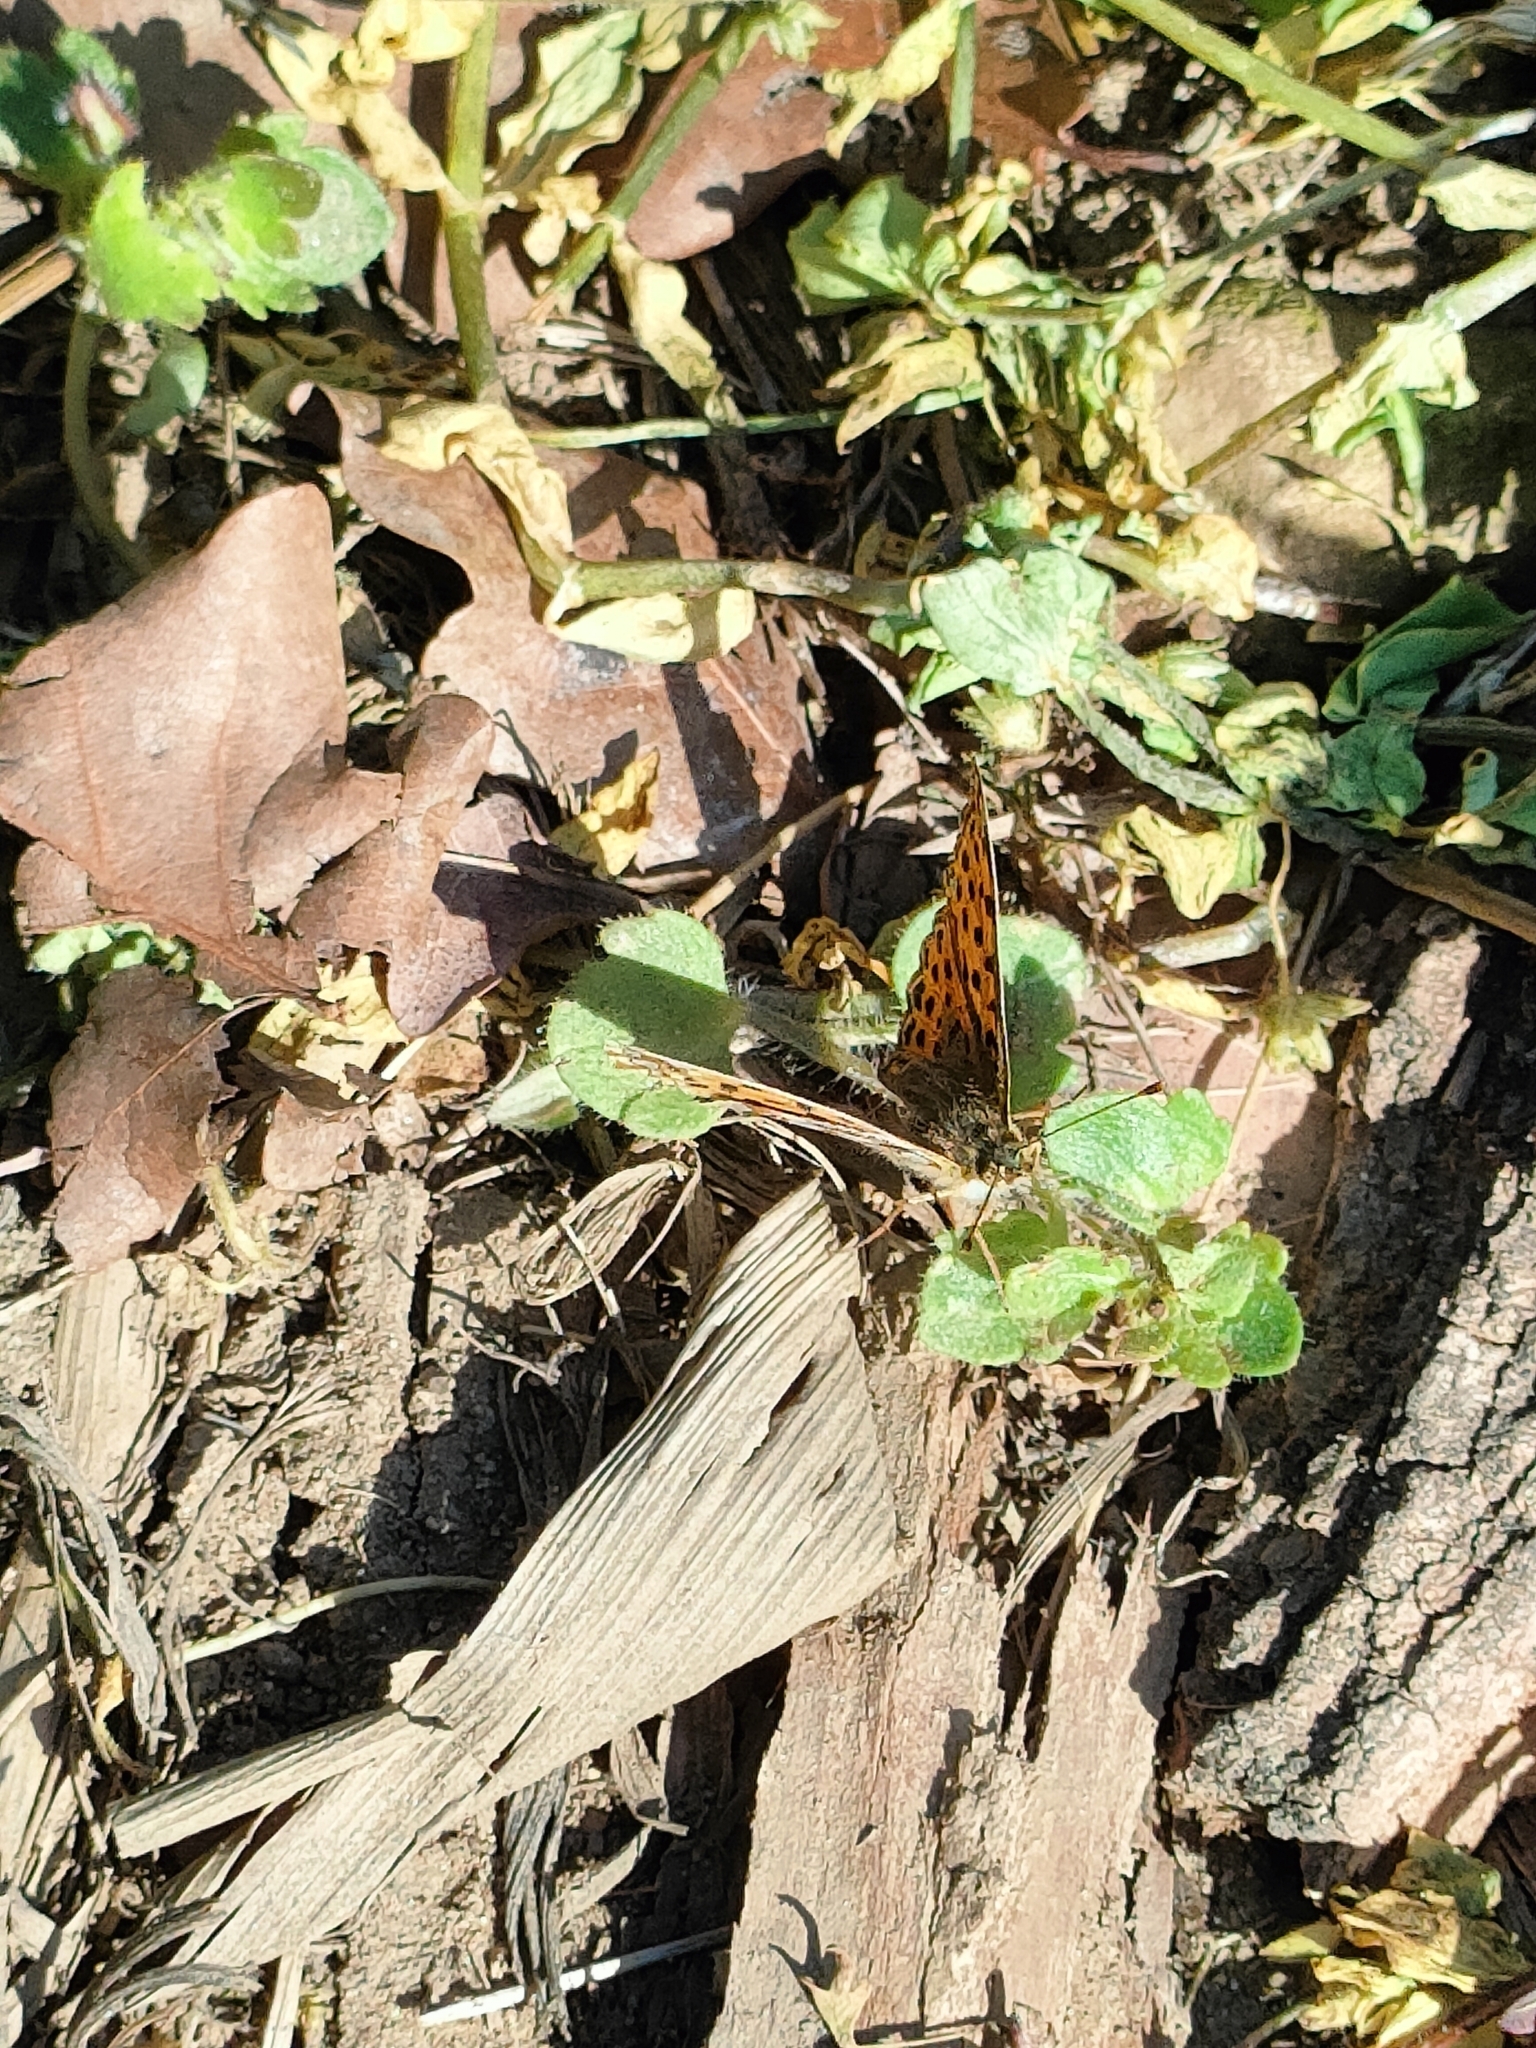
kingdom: Animalia
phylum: Arthropoda
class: Insecta
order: Lepidoptera
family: Nymphalidae
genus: Issoria
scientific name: Issoria lathonia
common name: Queen of spain fritillary
